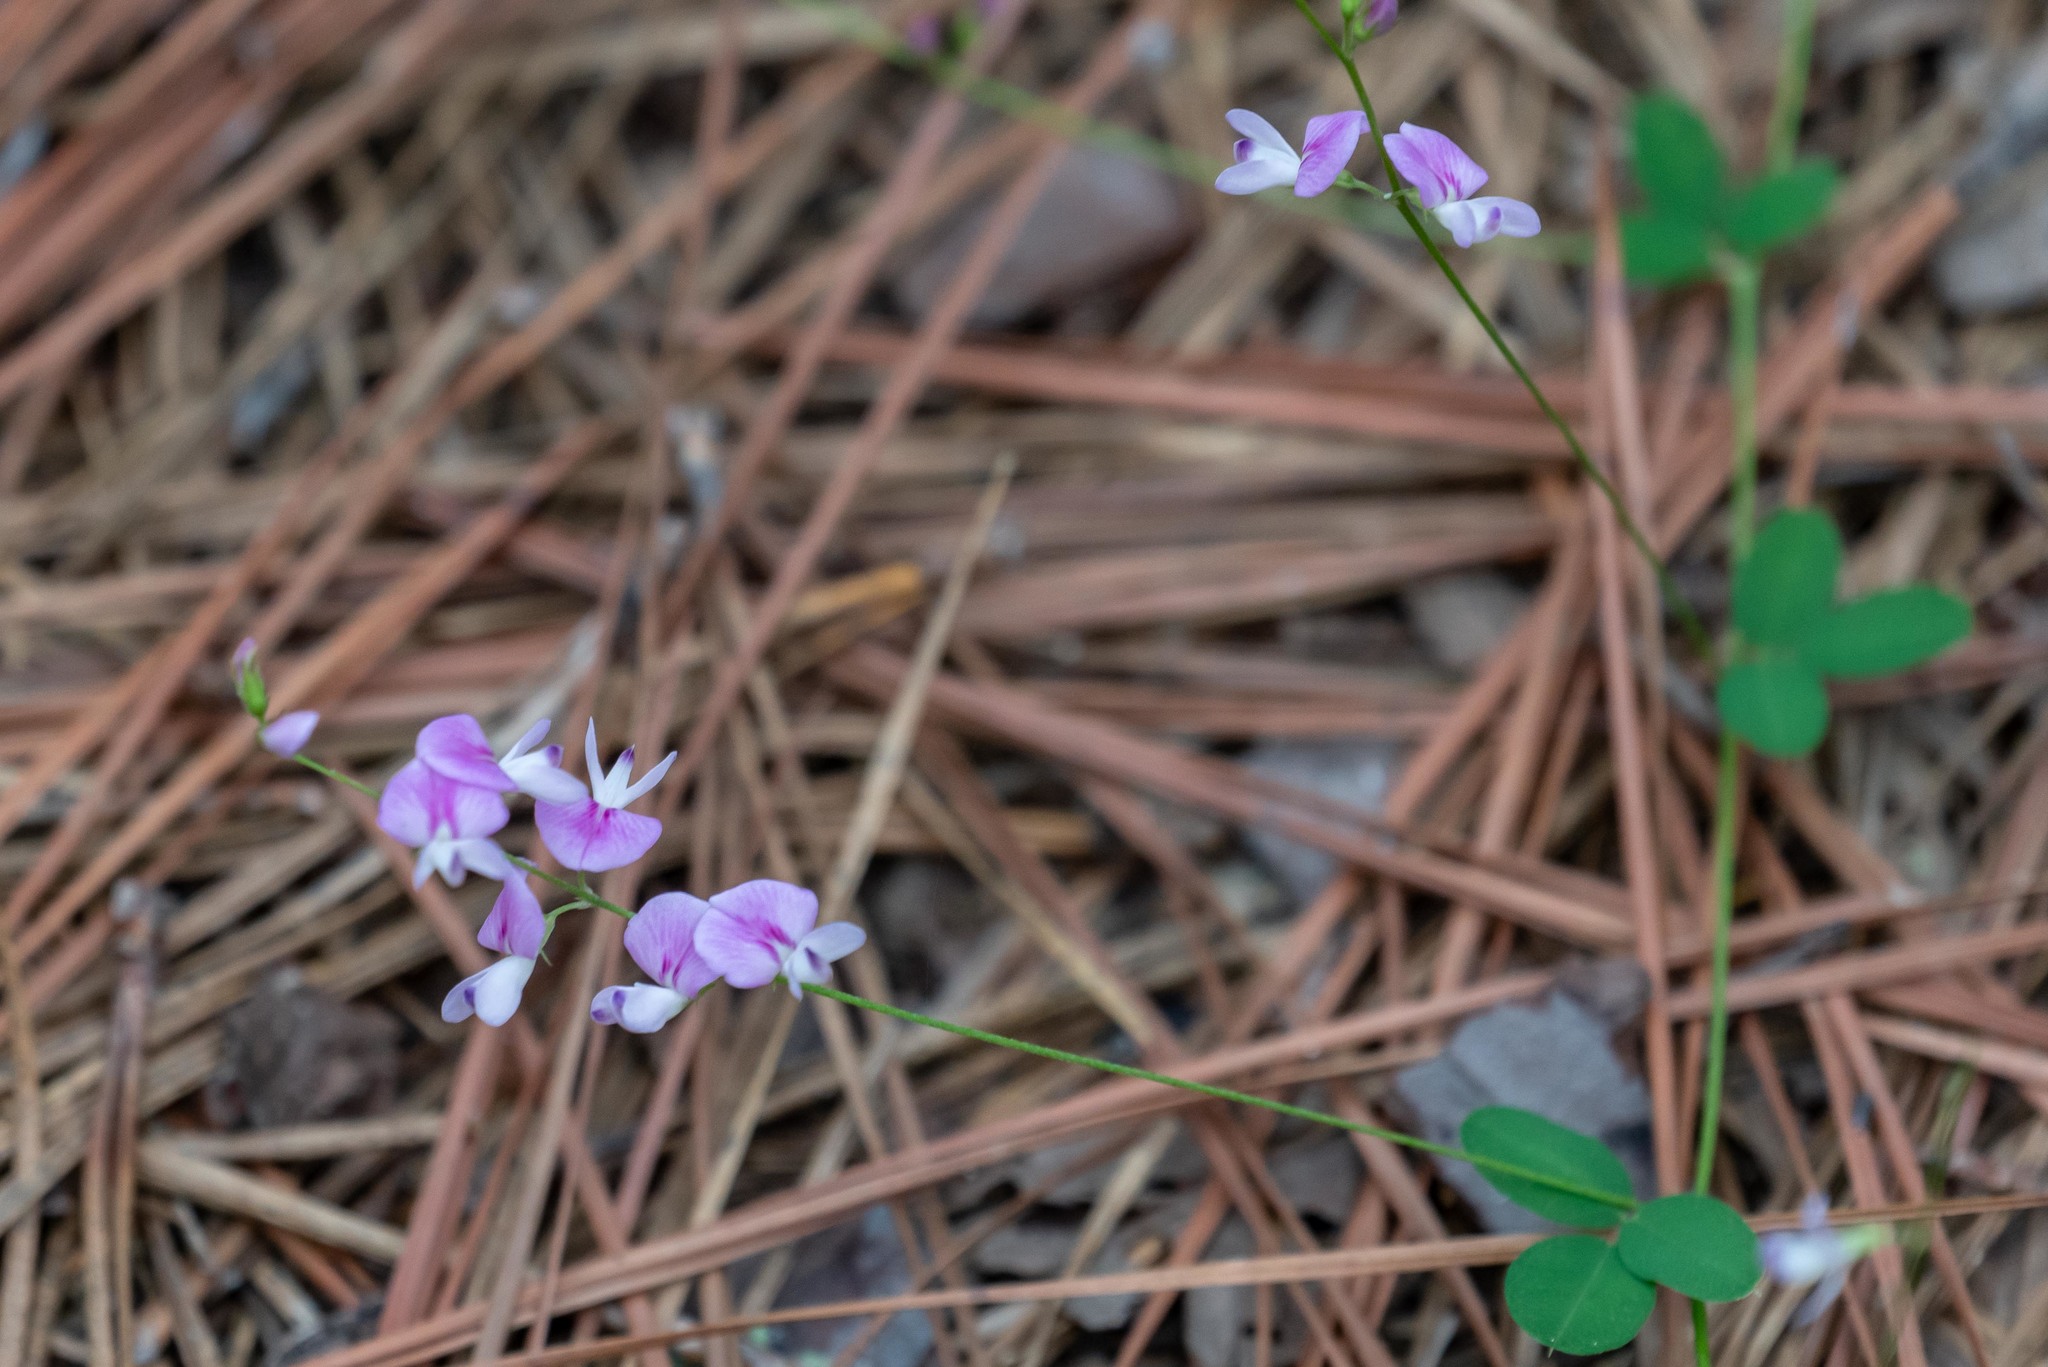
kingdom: Plantae
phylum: Tracheophyta
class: Magnoliopsida
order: Fabales
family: Fabaceae
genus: Lespedeza
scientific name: Lespedeza procumbens
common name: Downy trailing bush-clover
